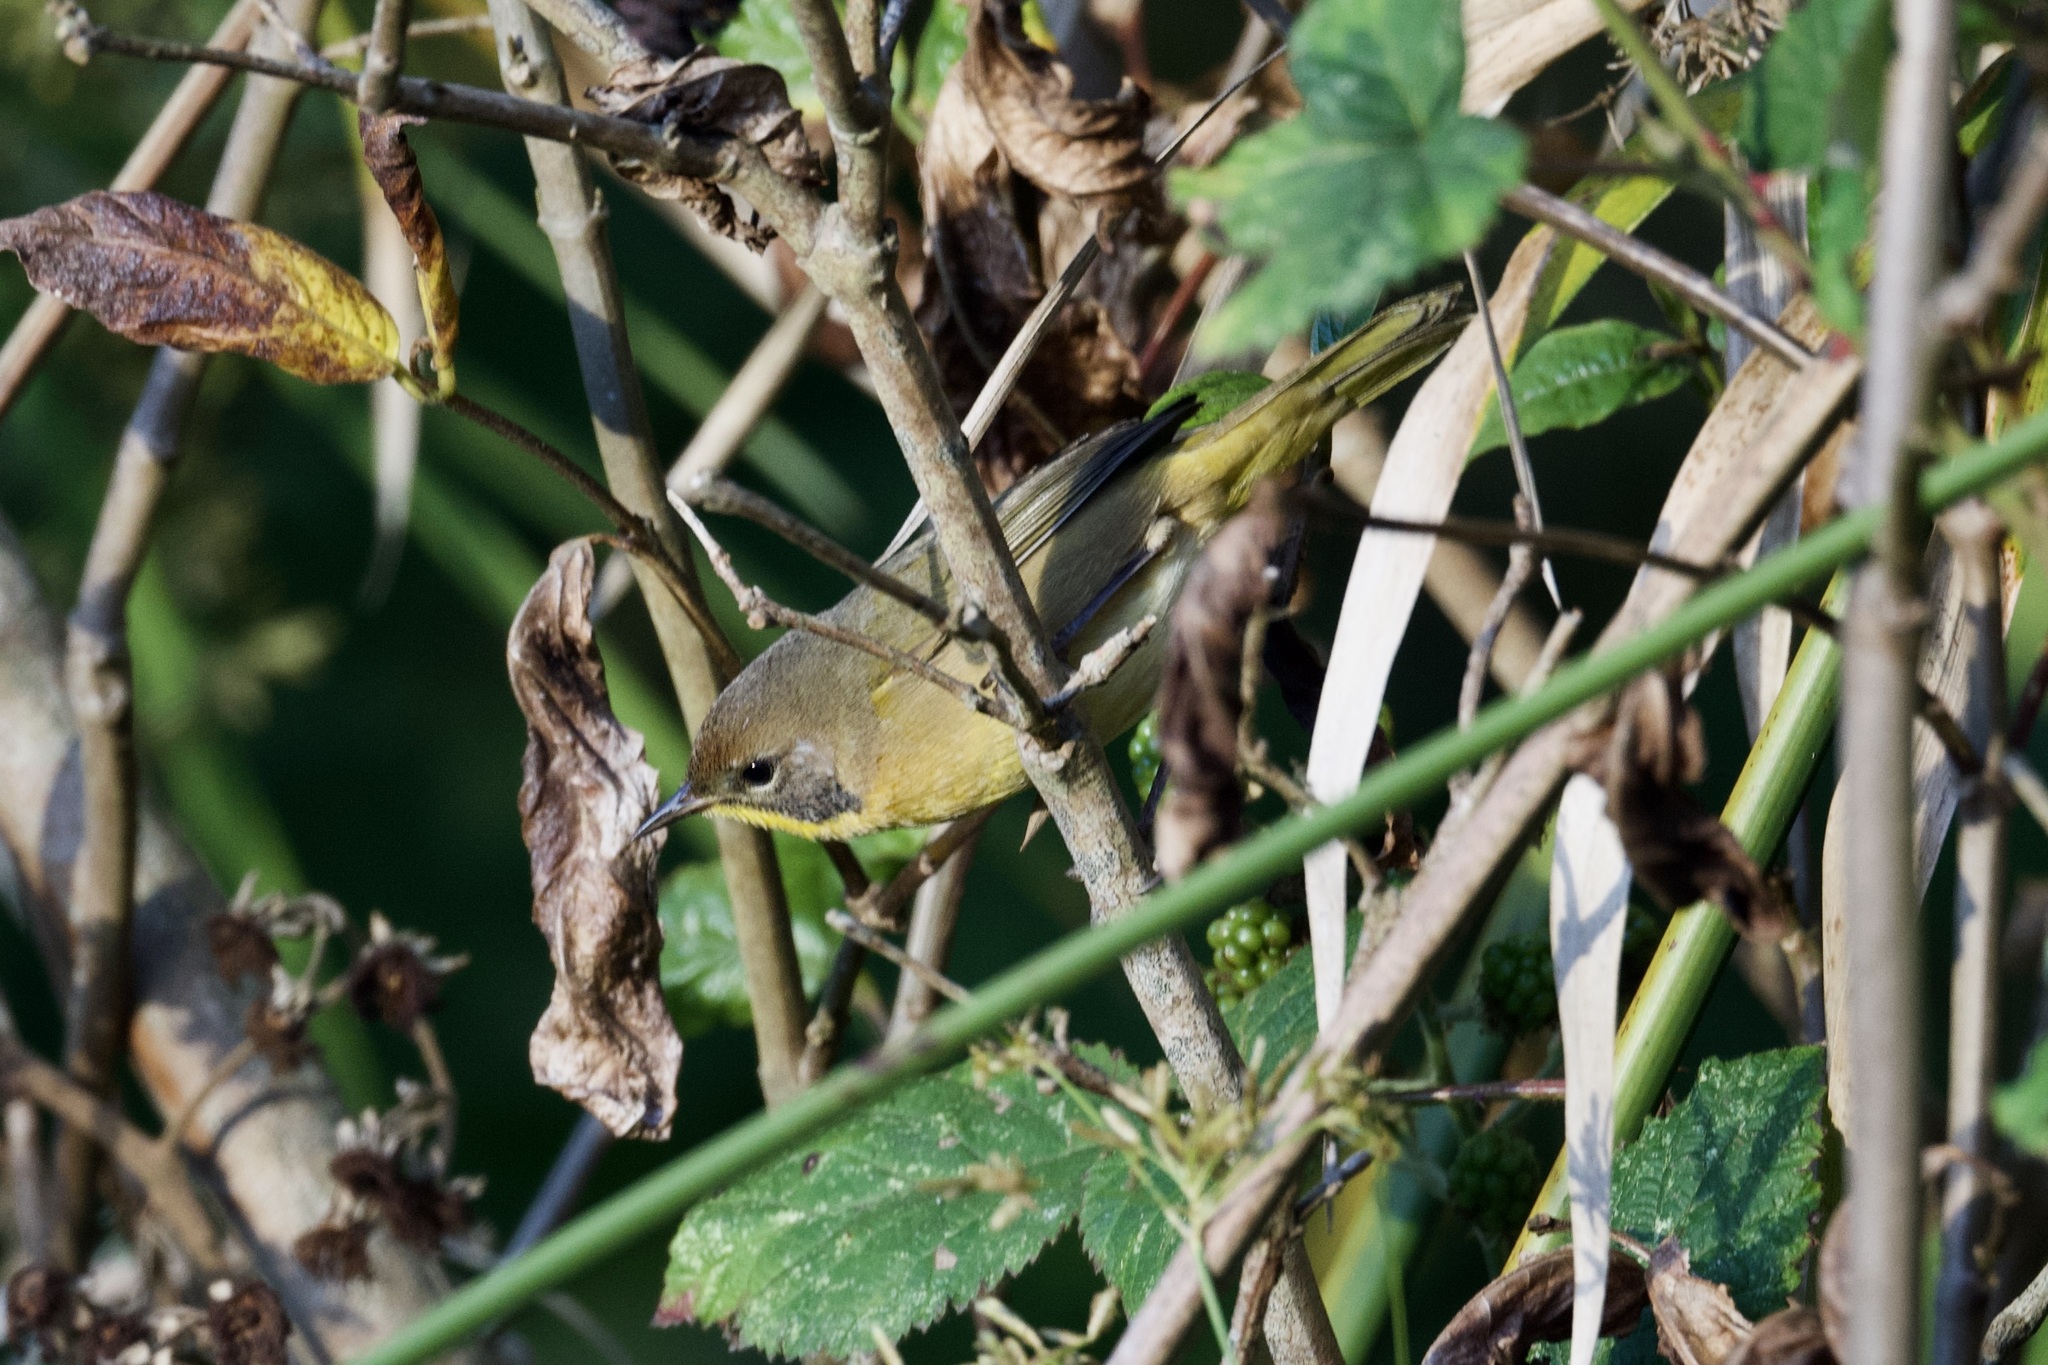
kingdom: Animalia
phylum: Chordata
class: Aves
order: Passeriformes
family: Parulidae
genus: Geothlypis
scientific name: Geothlypis trichas
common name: Common yellowthroat
